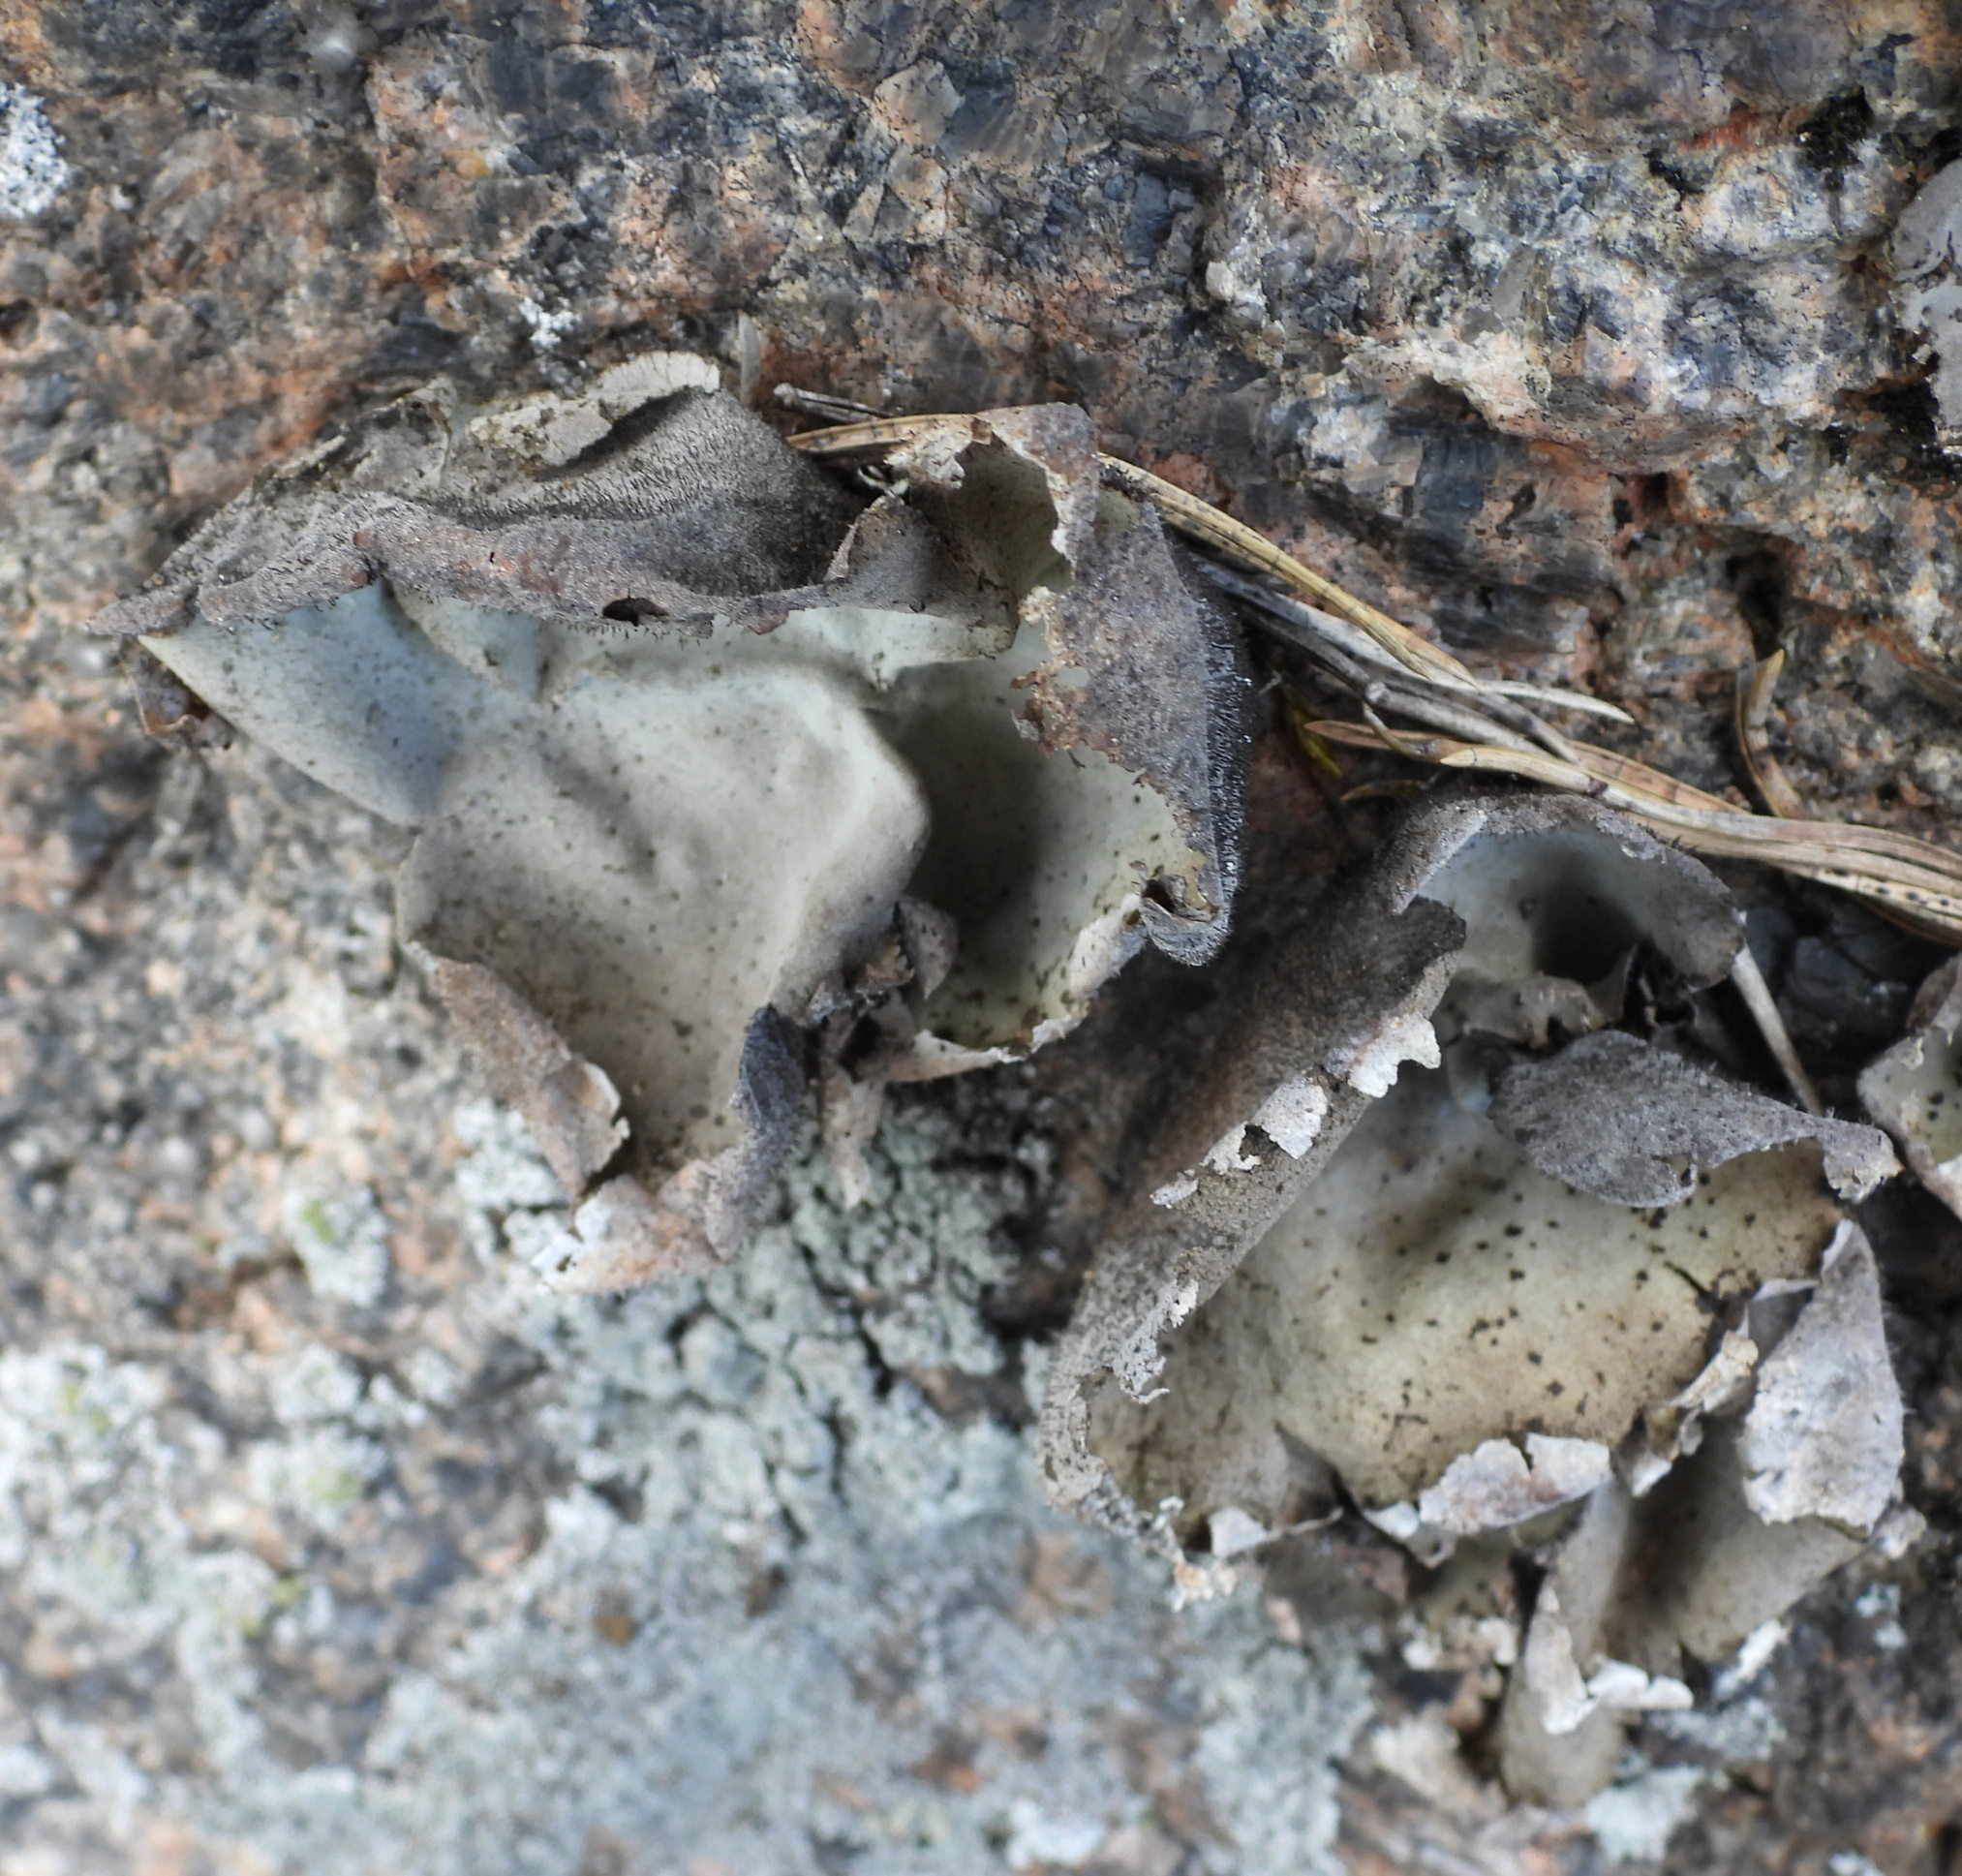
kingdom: Fungi
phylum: Ascomycota
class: Lecanoromycetes
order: Umbilicariales
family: Umbilicariaceae
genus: Umbilicaria
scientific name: Umbilicaria hirsuta
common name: Granulating rocktripe lichen
